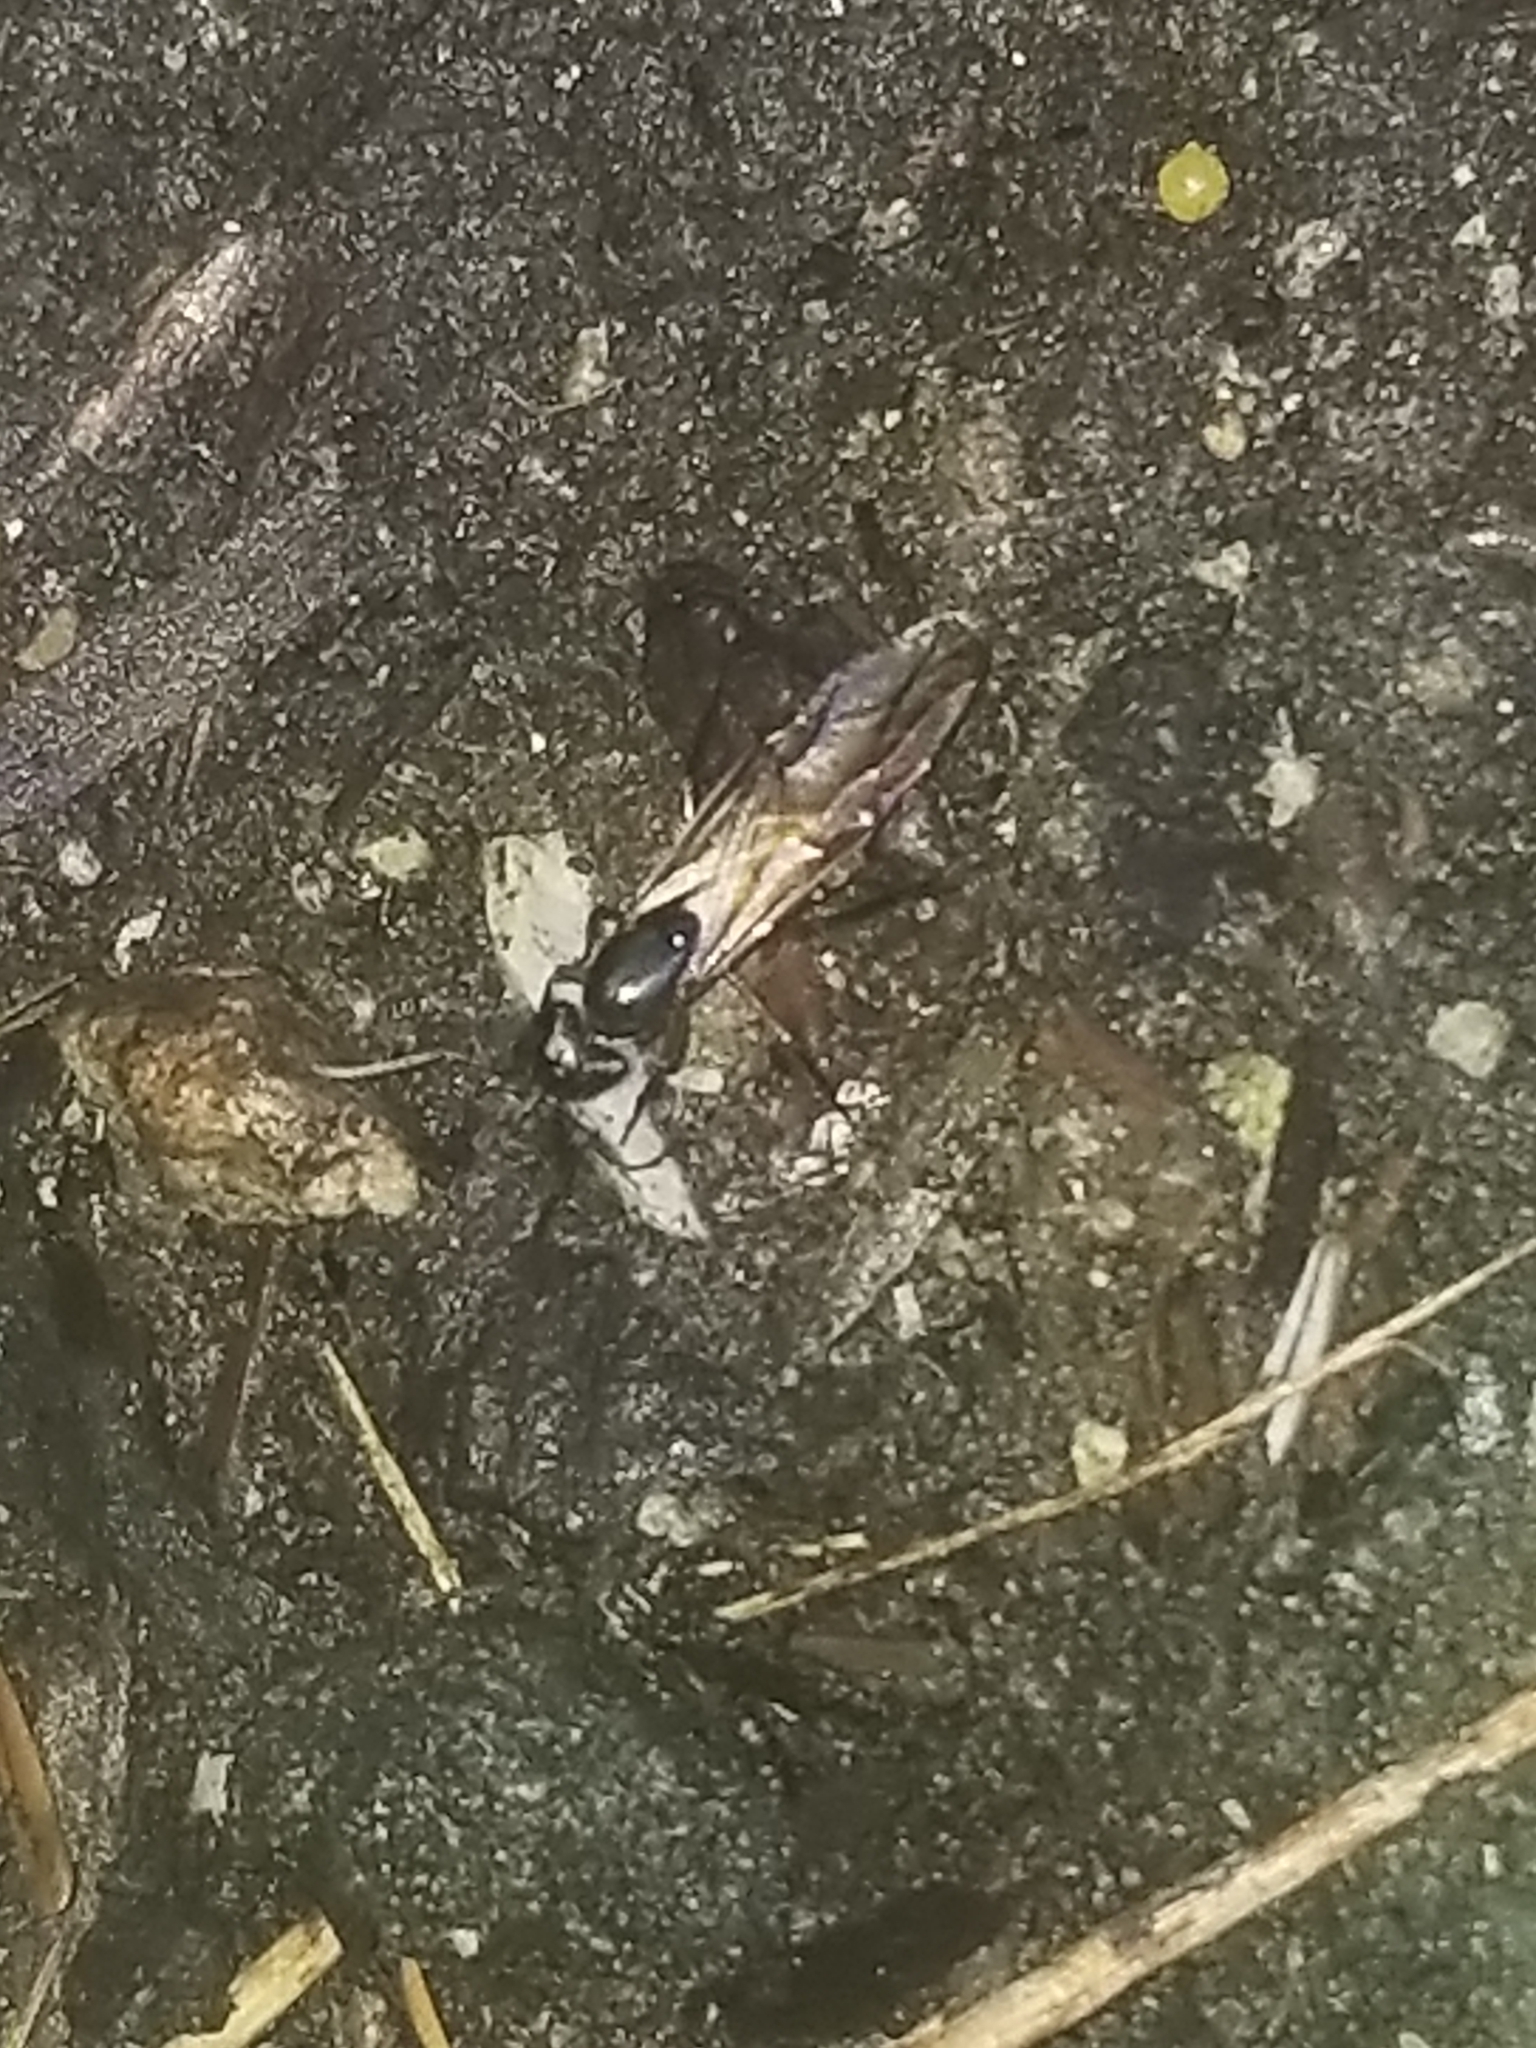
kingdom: Animalia
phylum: Arthropoda
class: Insecta
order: Hymenoptera
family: Formicidae
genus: Camponotus
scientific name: Camponotus pennsylvanicus
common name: Black carpenter ant
